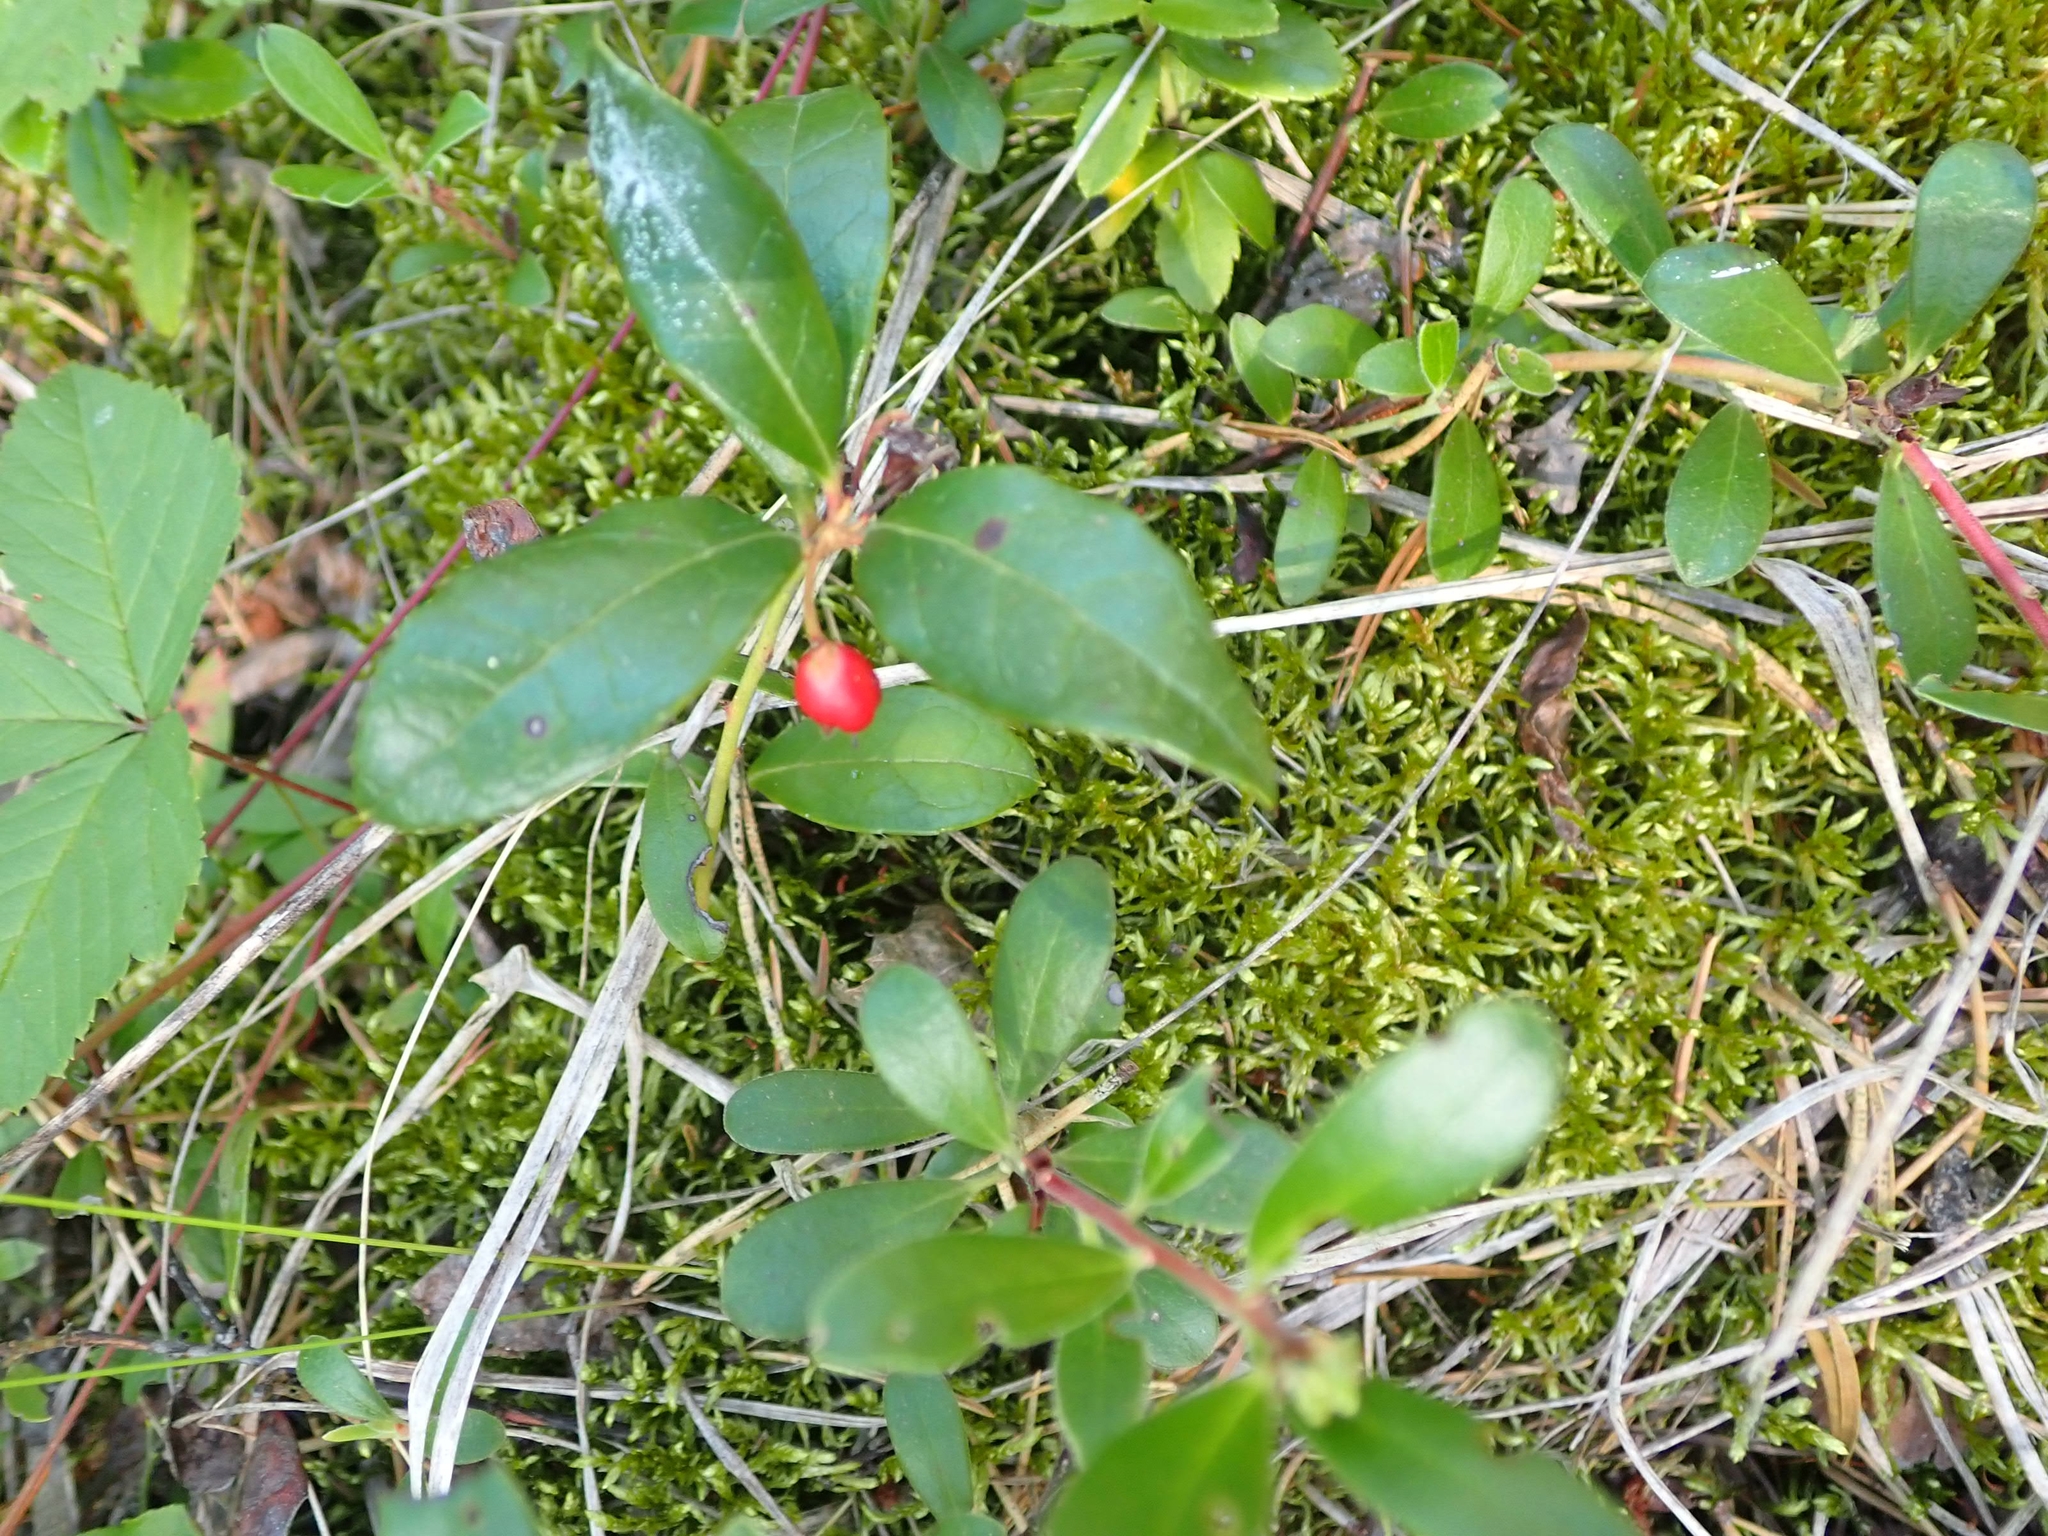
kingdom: Plantae
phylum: Tracheophyta
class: Magnoliopsida
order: Ericales
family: Ericaceae
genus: Gaultheria
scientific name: Gaultheria procumbens
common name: Checkerberry
